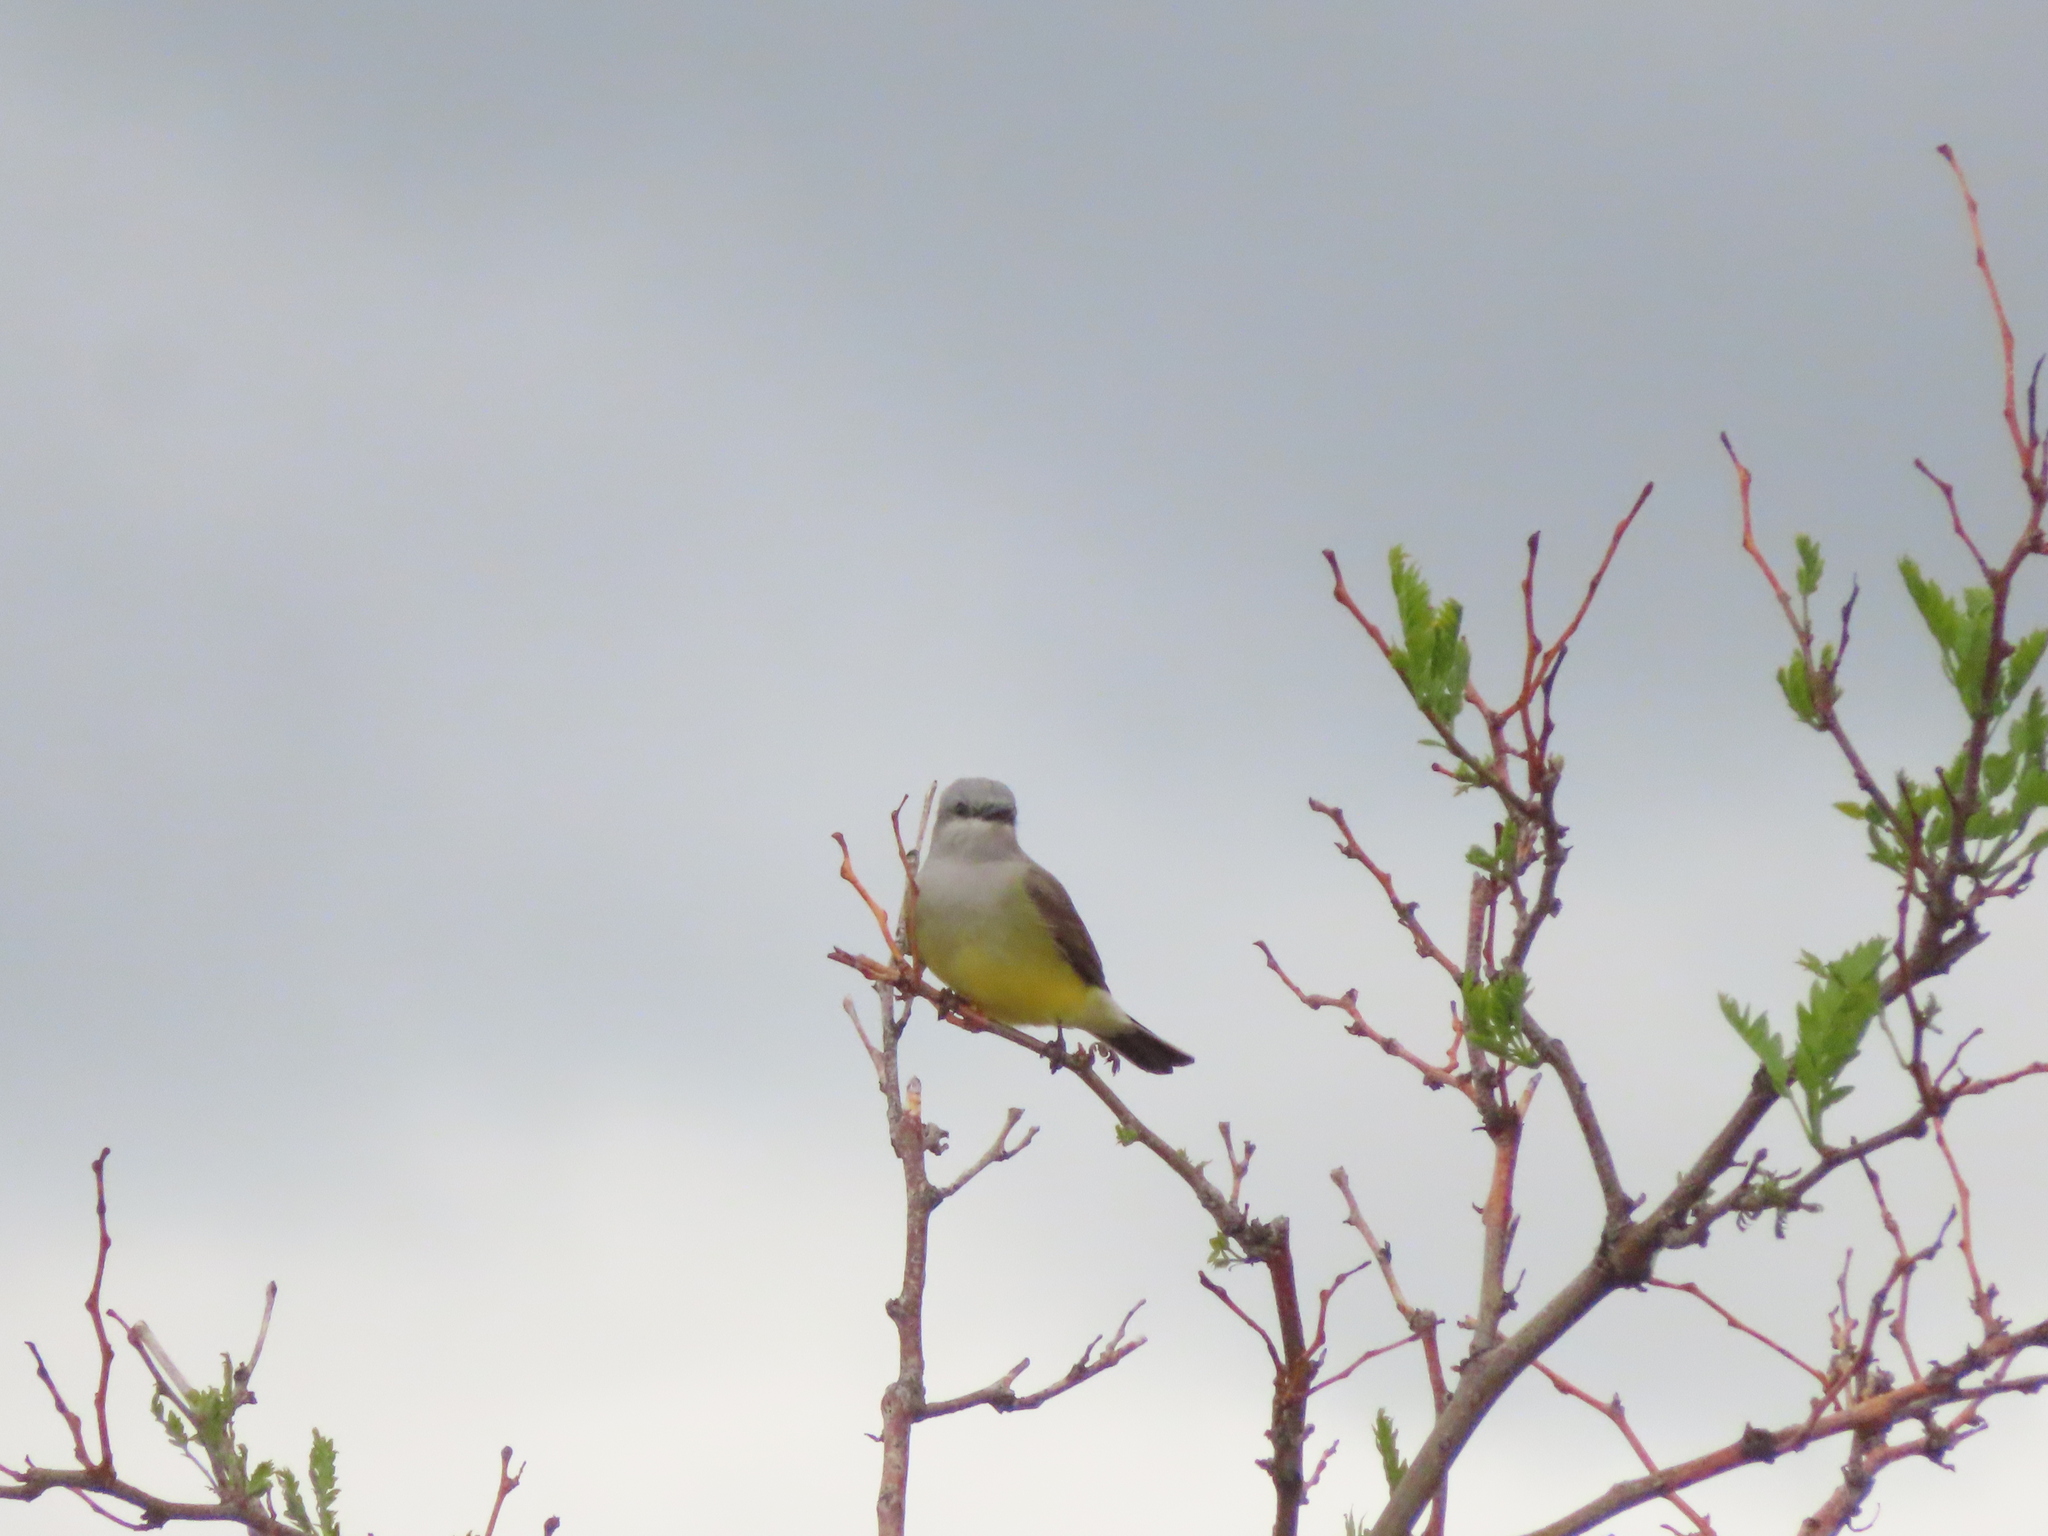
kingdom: Animalia
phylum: Chordata
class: Aves
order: Passeriformes
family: Tyrannidae
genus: Tyrannus
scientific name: Tyrannus verticalis
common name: Western kingbird
